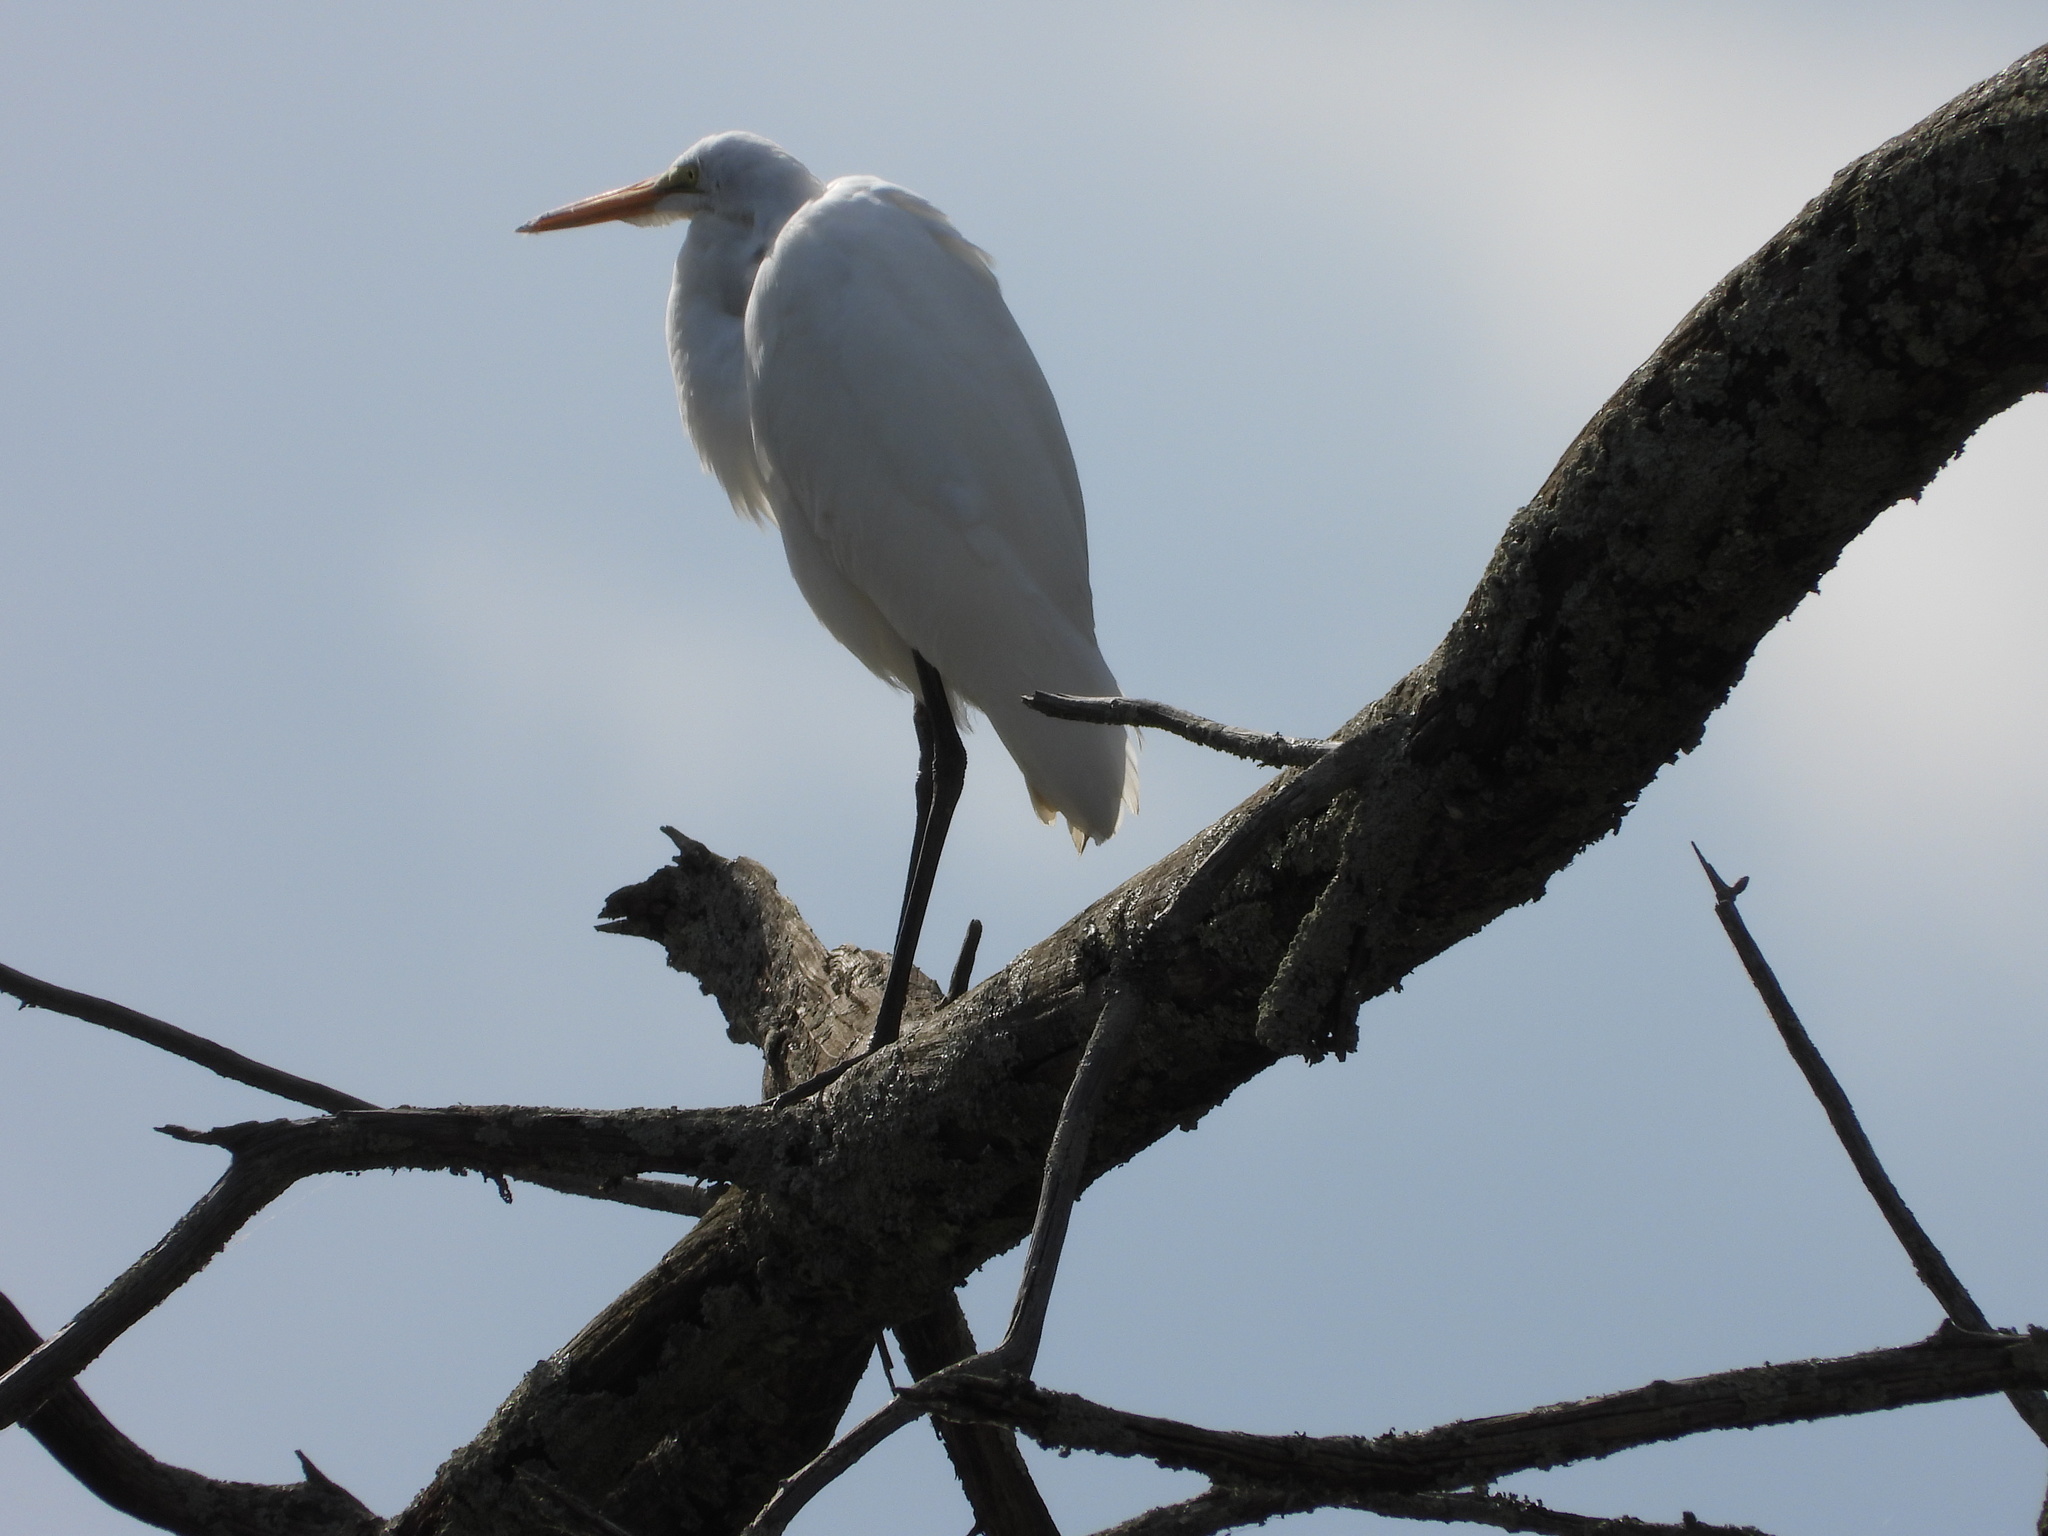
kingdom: Animalia
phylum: Chordata
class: Aves
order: Pelecaniformes
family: Ardeidae
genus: Ardea
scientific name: Ardea alba
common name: Great egret
